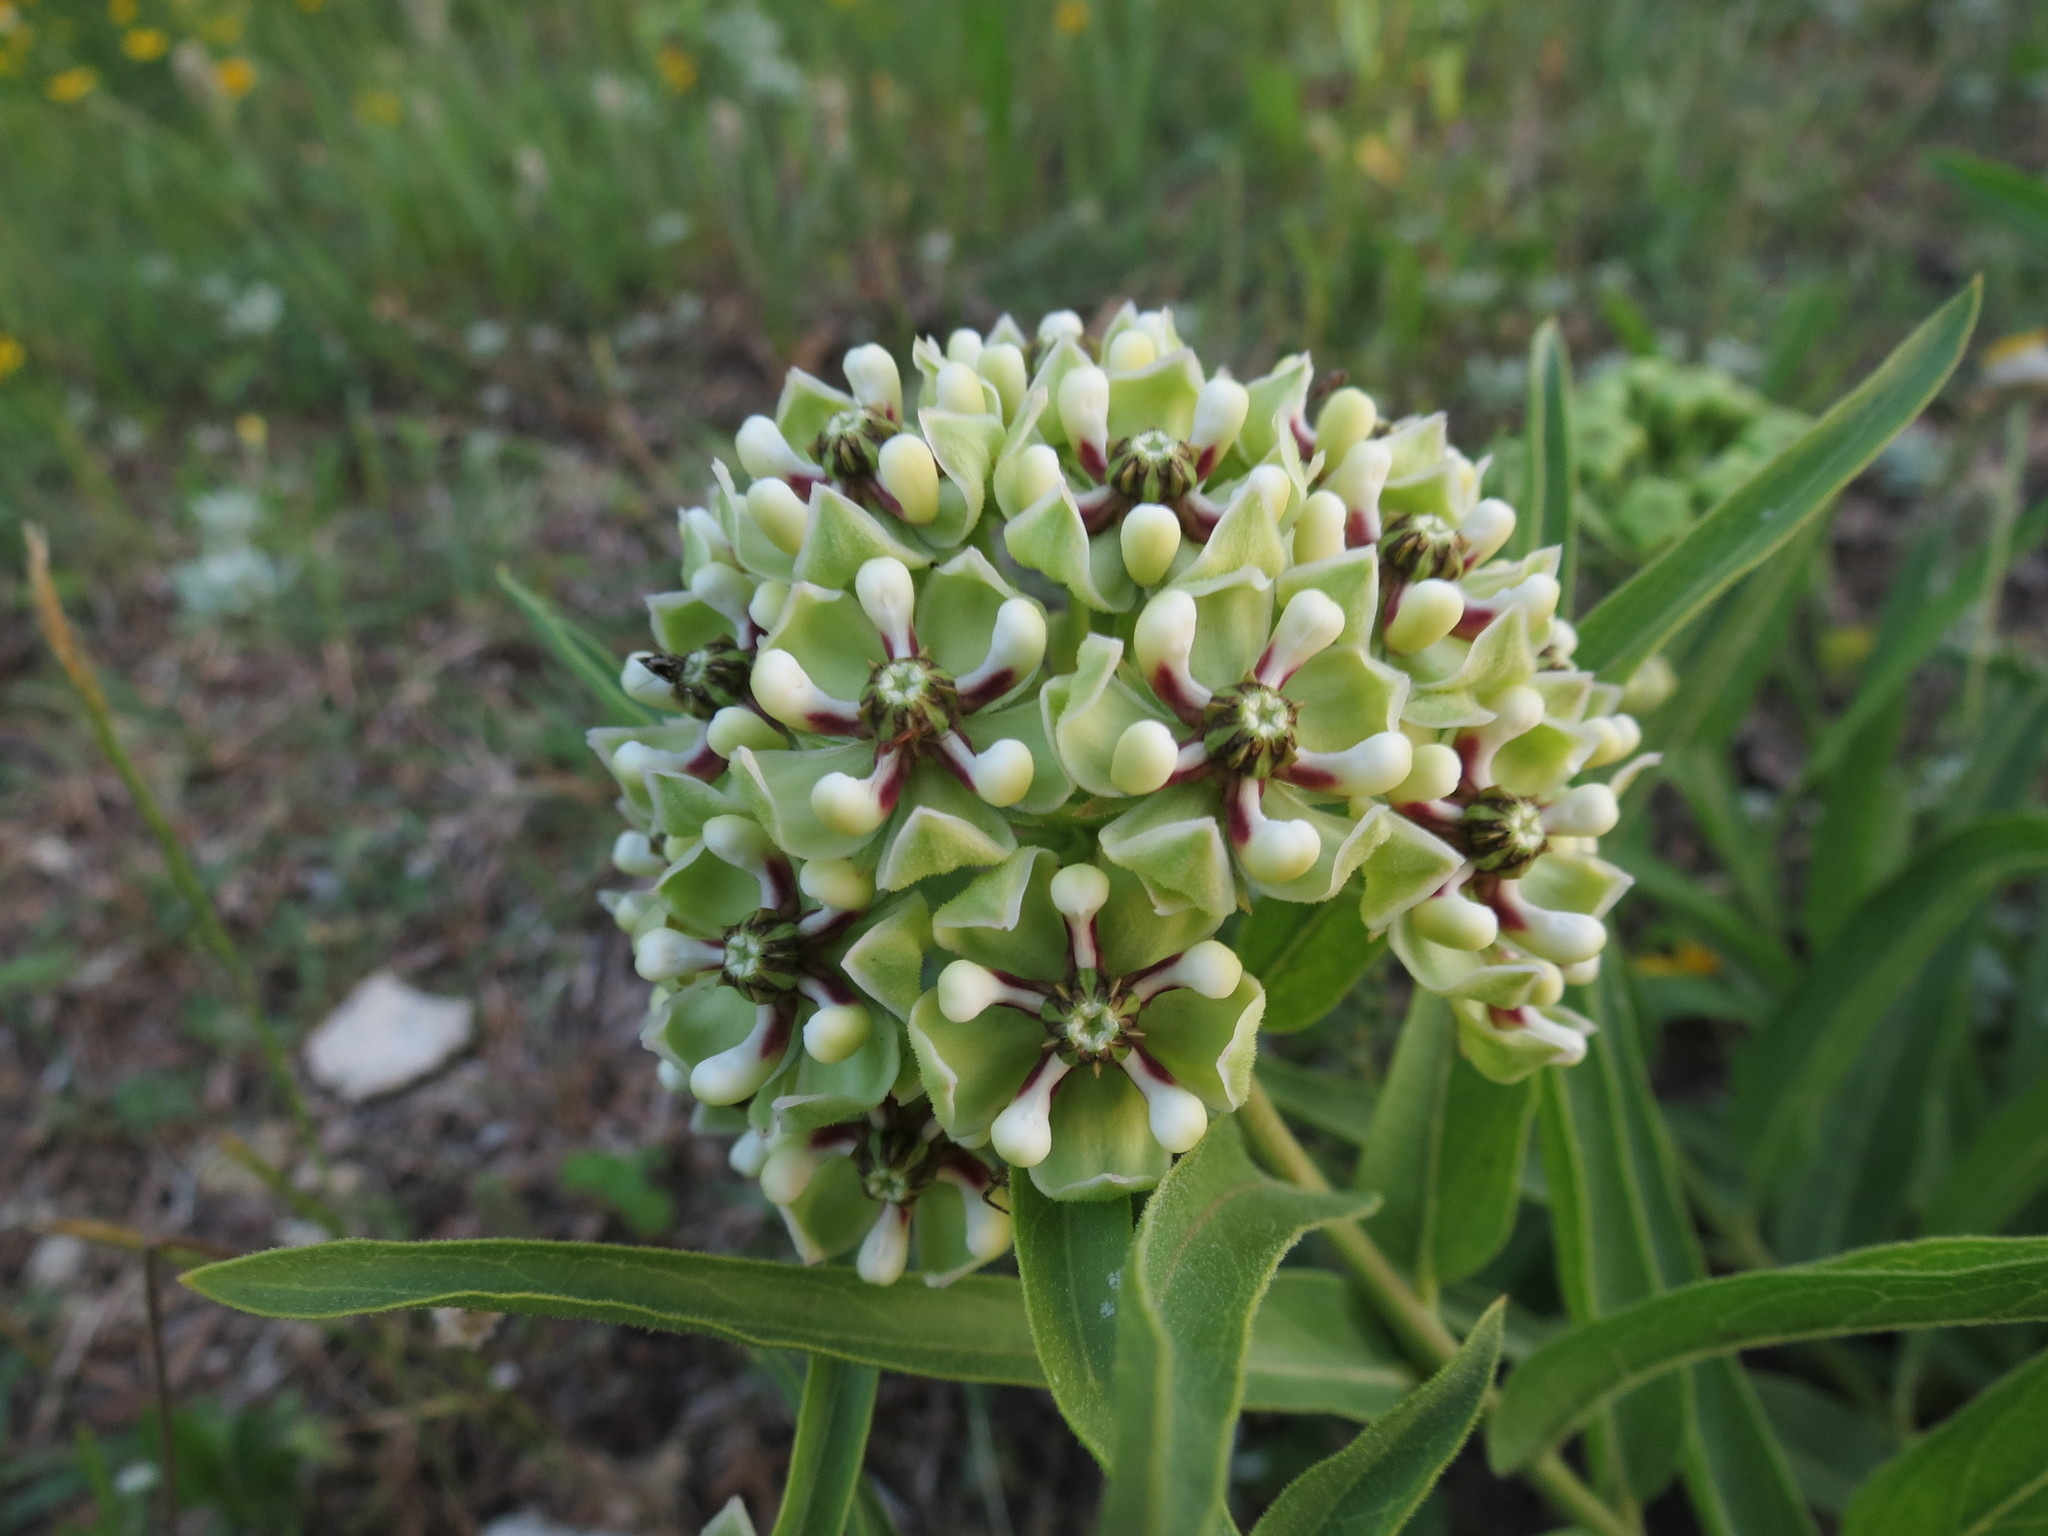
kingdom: Plantae
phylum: Tracheophyta
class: Magnoliopsida
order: Gentianales
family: Apocynaceae
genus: Asclepias
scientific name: Asclepias asperula
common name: Antelope horns
